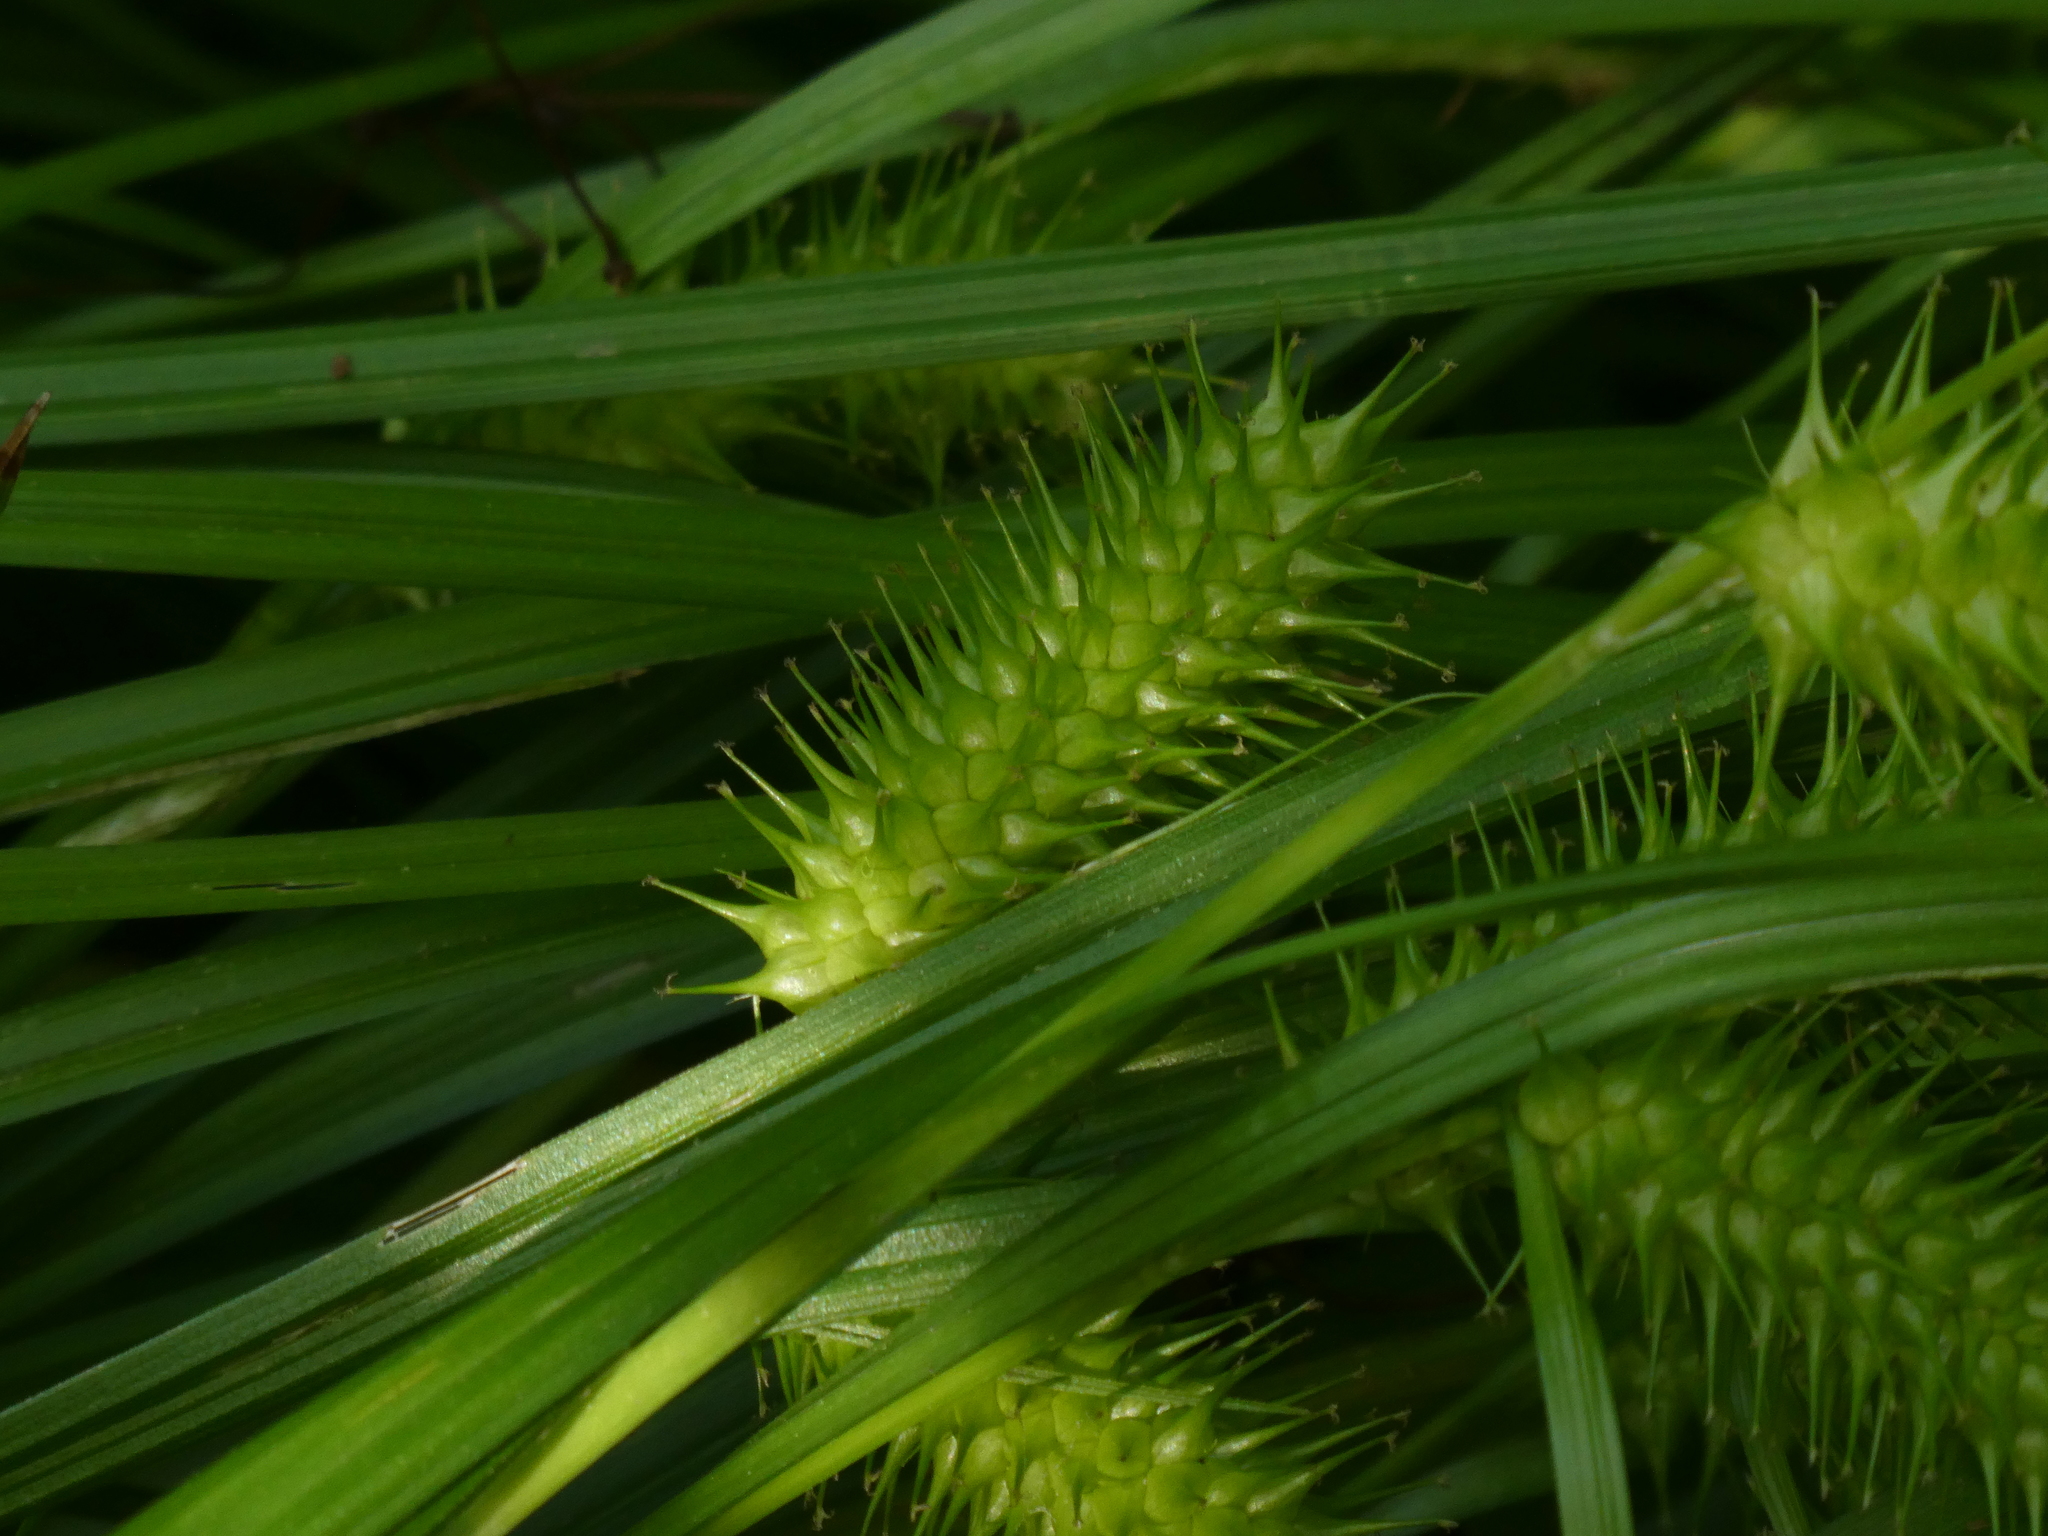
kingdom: Plantae
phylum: Tracheophyta
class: Liliopsida
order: Poales
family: Cyperaceae
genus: Carex
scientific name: Carex lurida
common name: Sallow sedge
